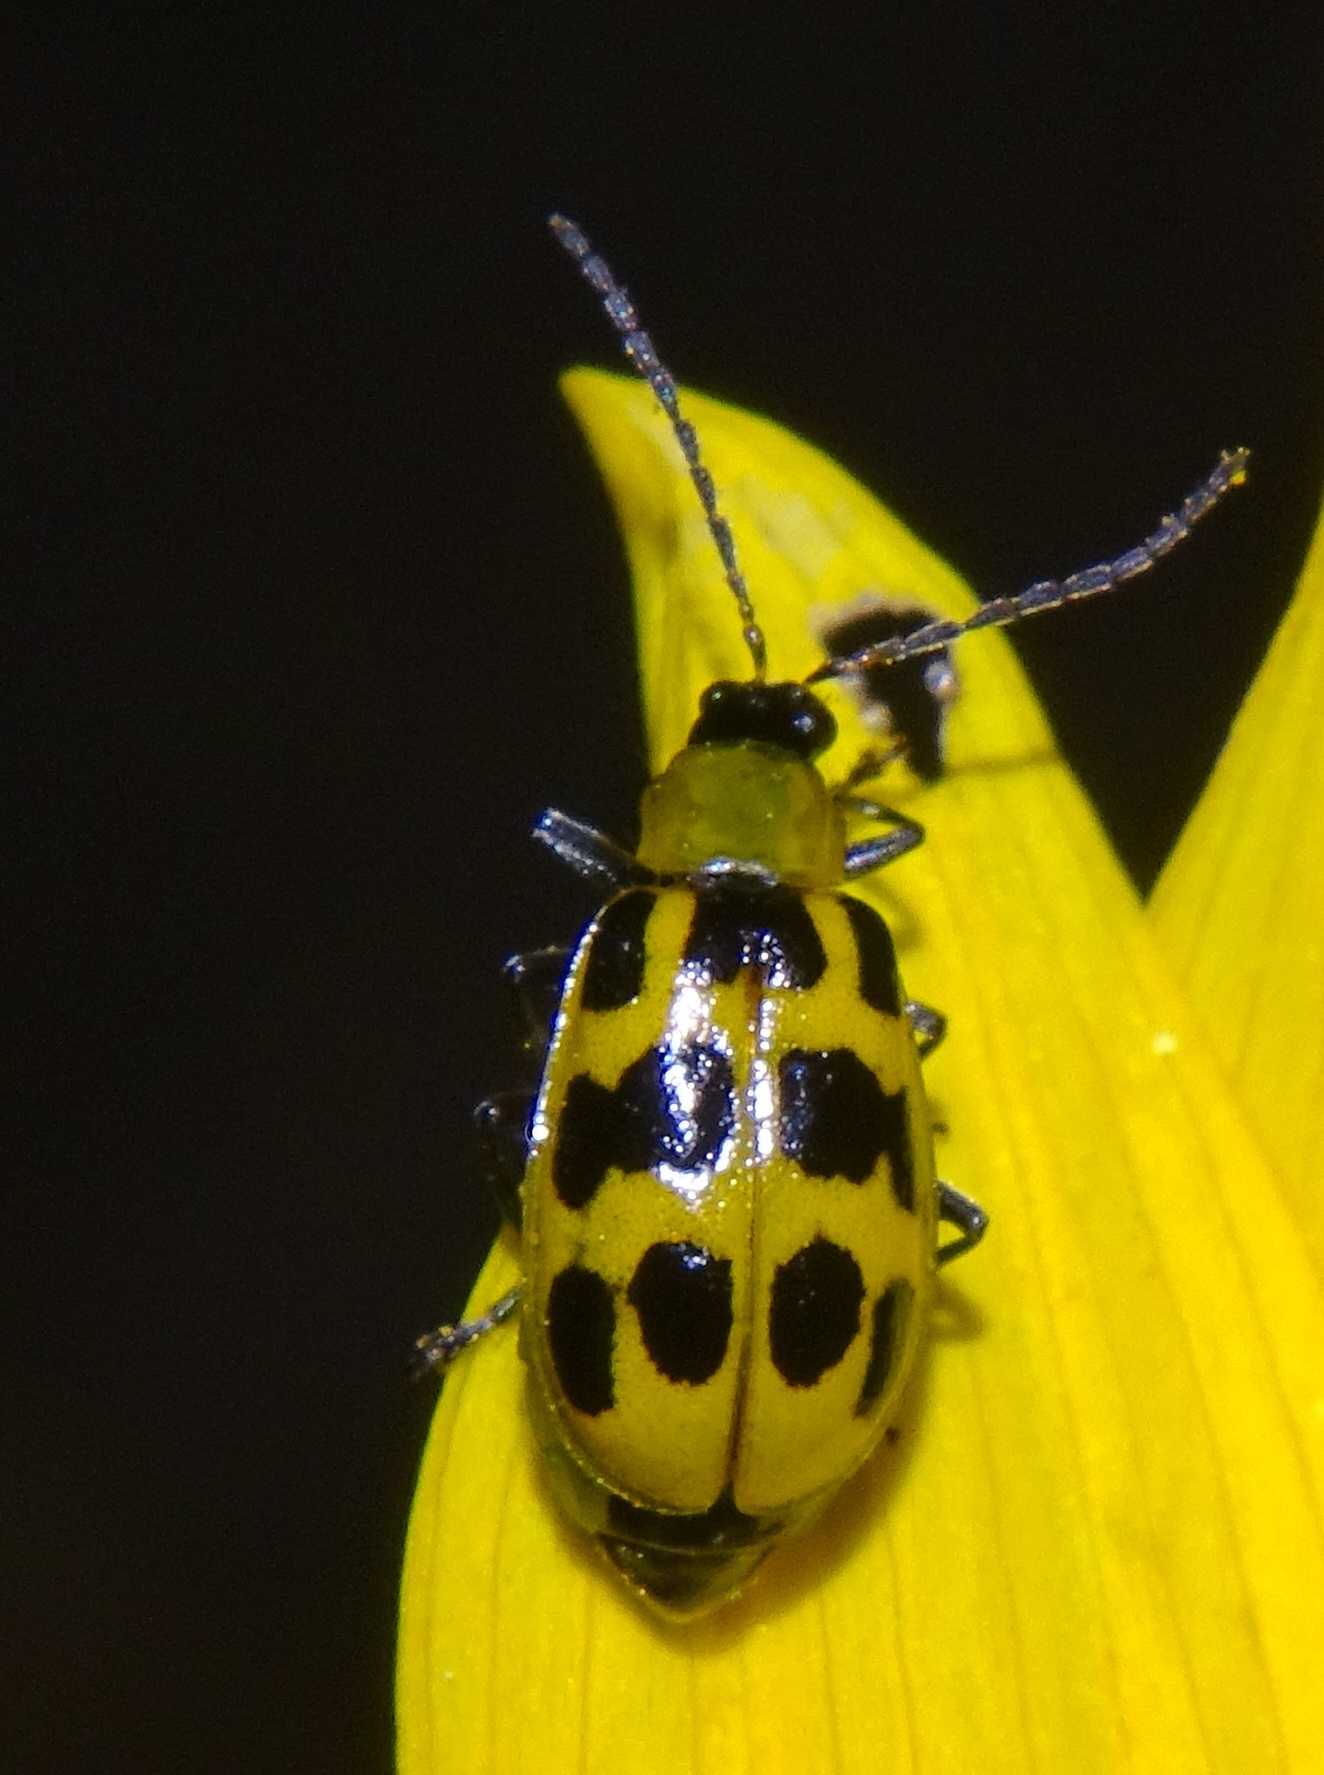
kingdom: Animalia
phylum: Arthropoda
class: Insecta
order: Coleoptera
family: Chrysomelidae
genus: Diabrotica
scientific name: Diabrotica undecimpunctata
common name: Spotted cucumber beetle
